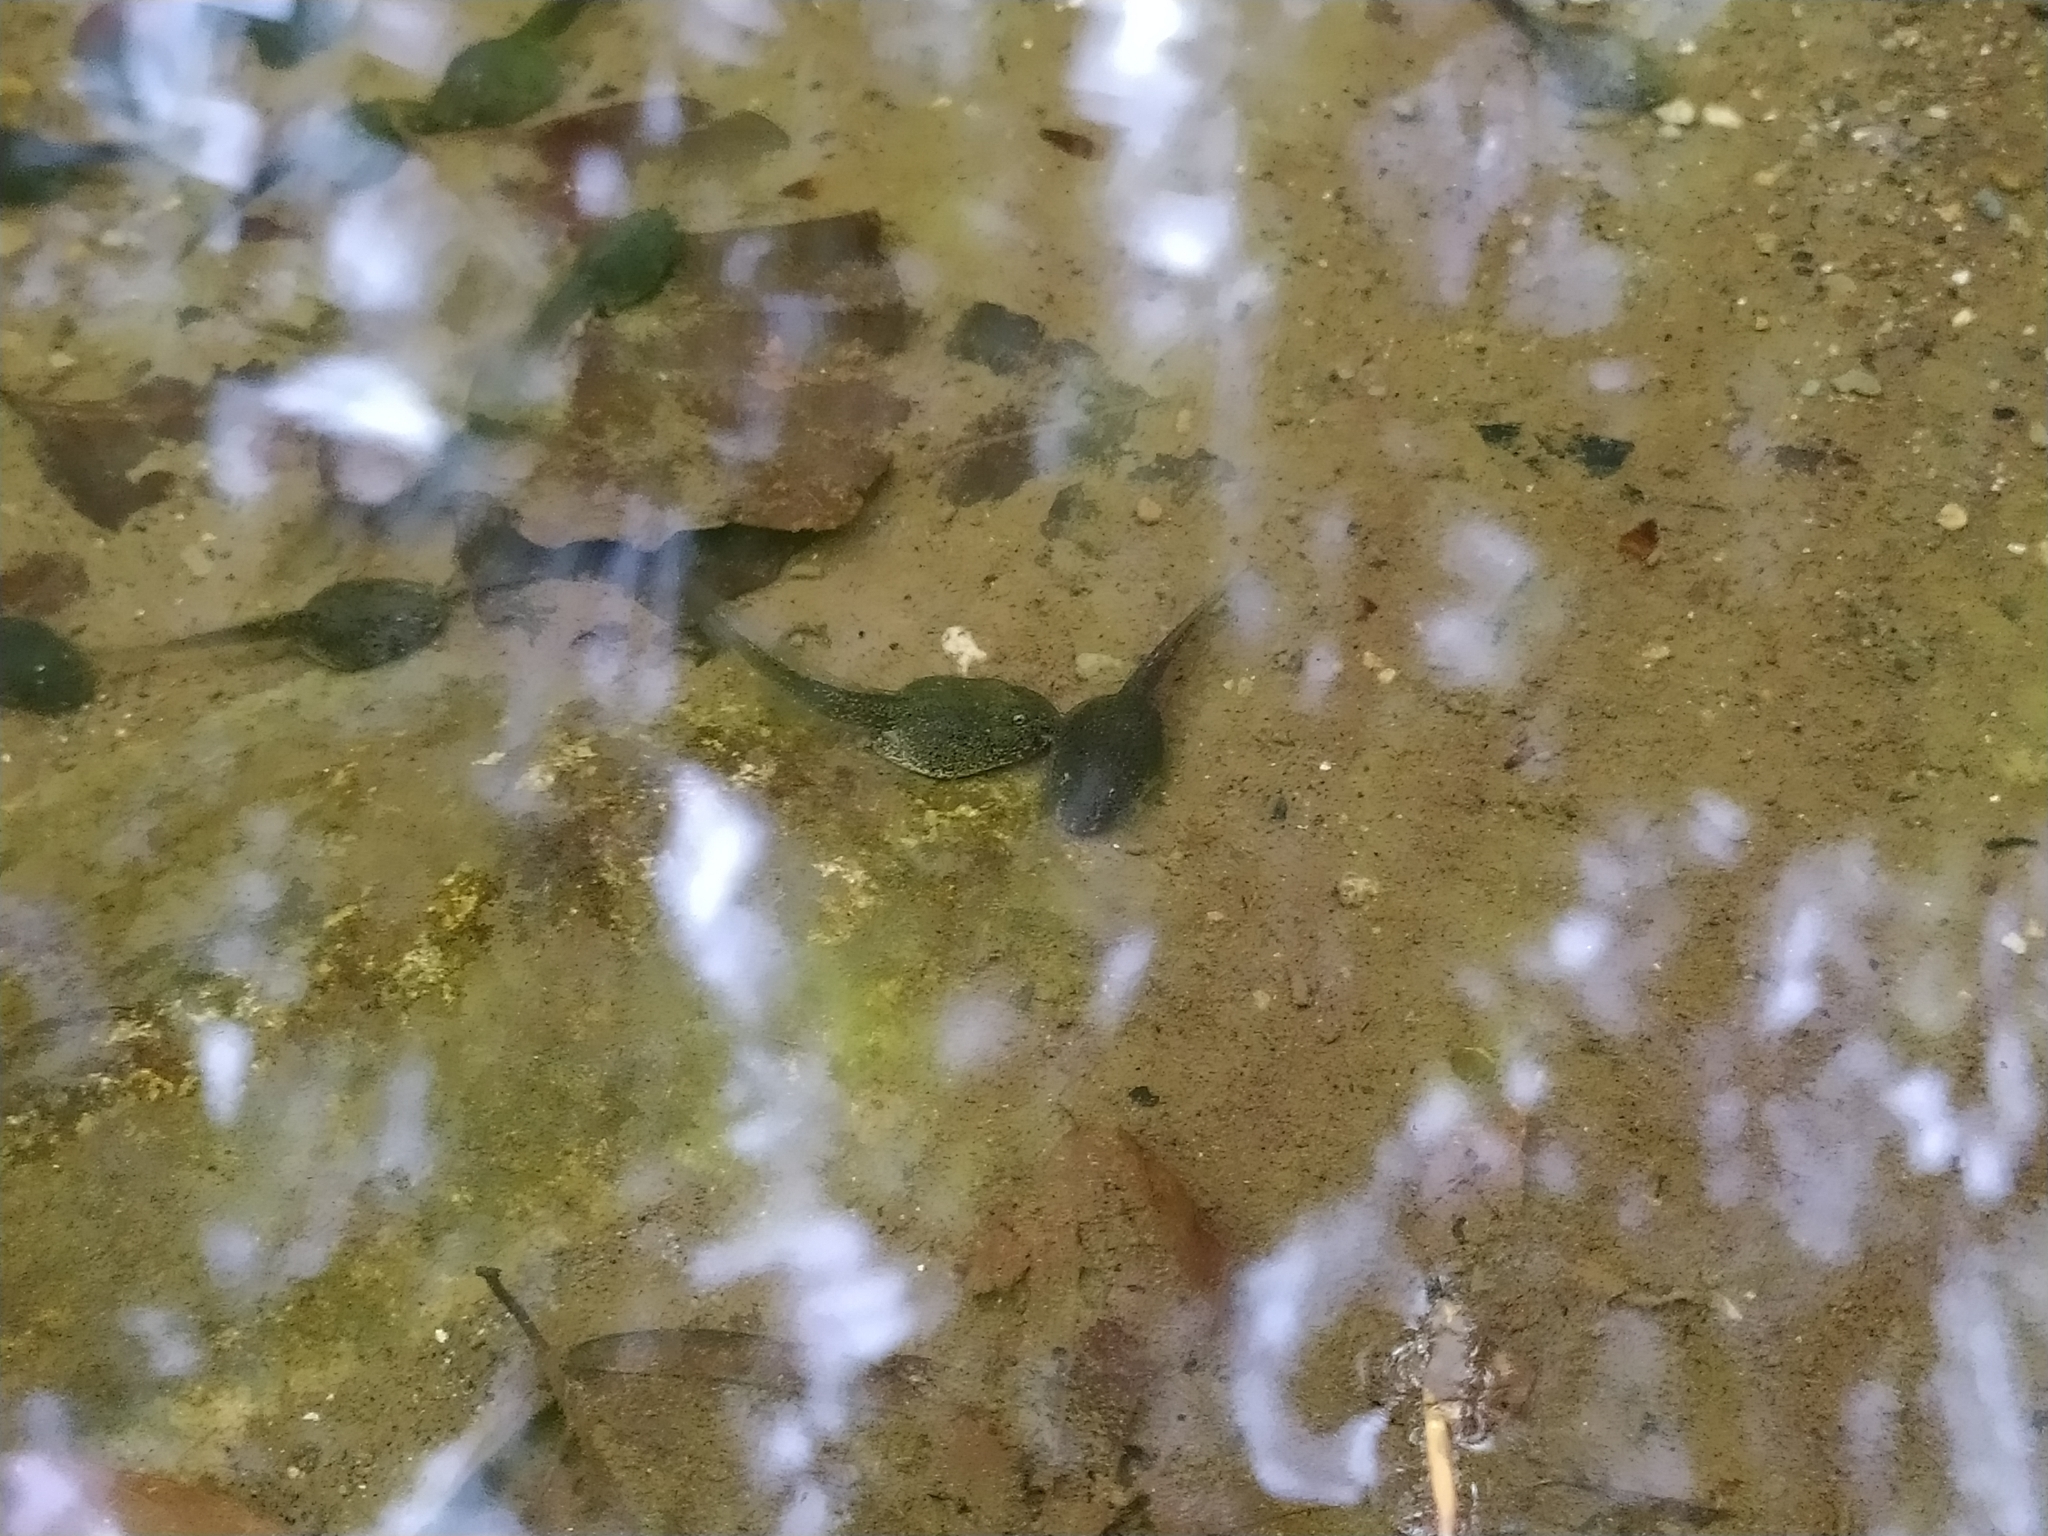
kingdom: Animalia
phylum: Chordata
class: Amphibia
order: Anura
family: Ranidae
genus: Rana
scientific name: Rana italica
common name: Italian stream frog
